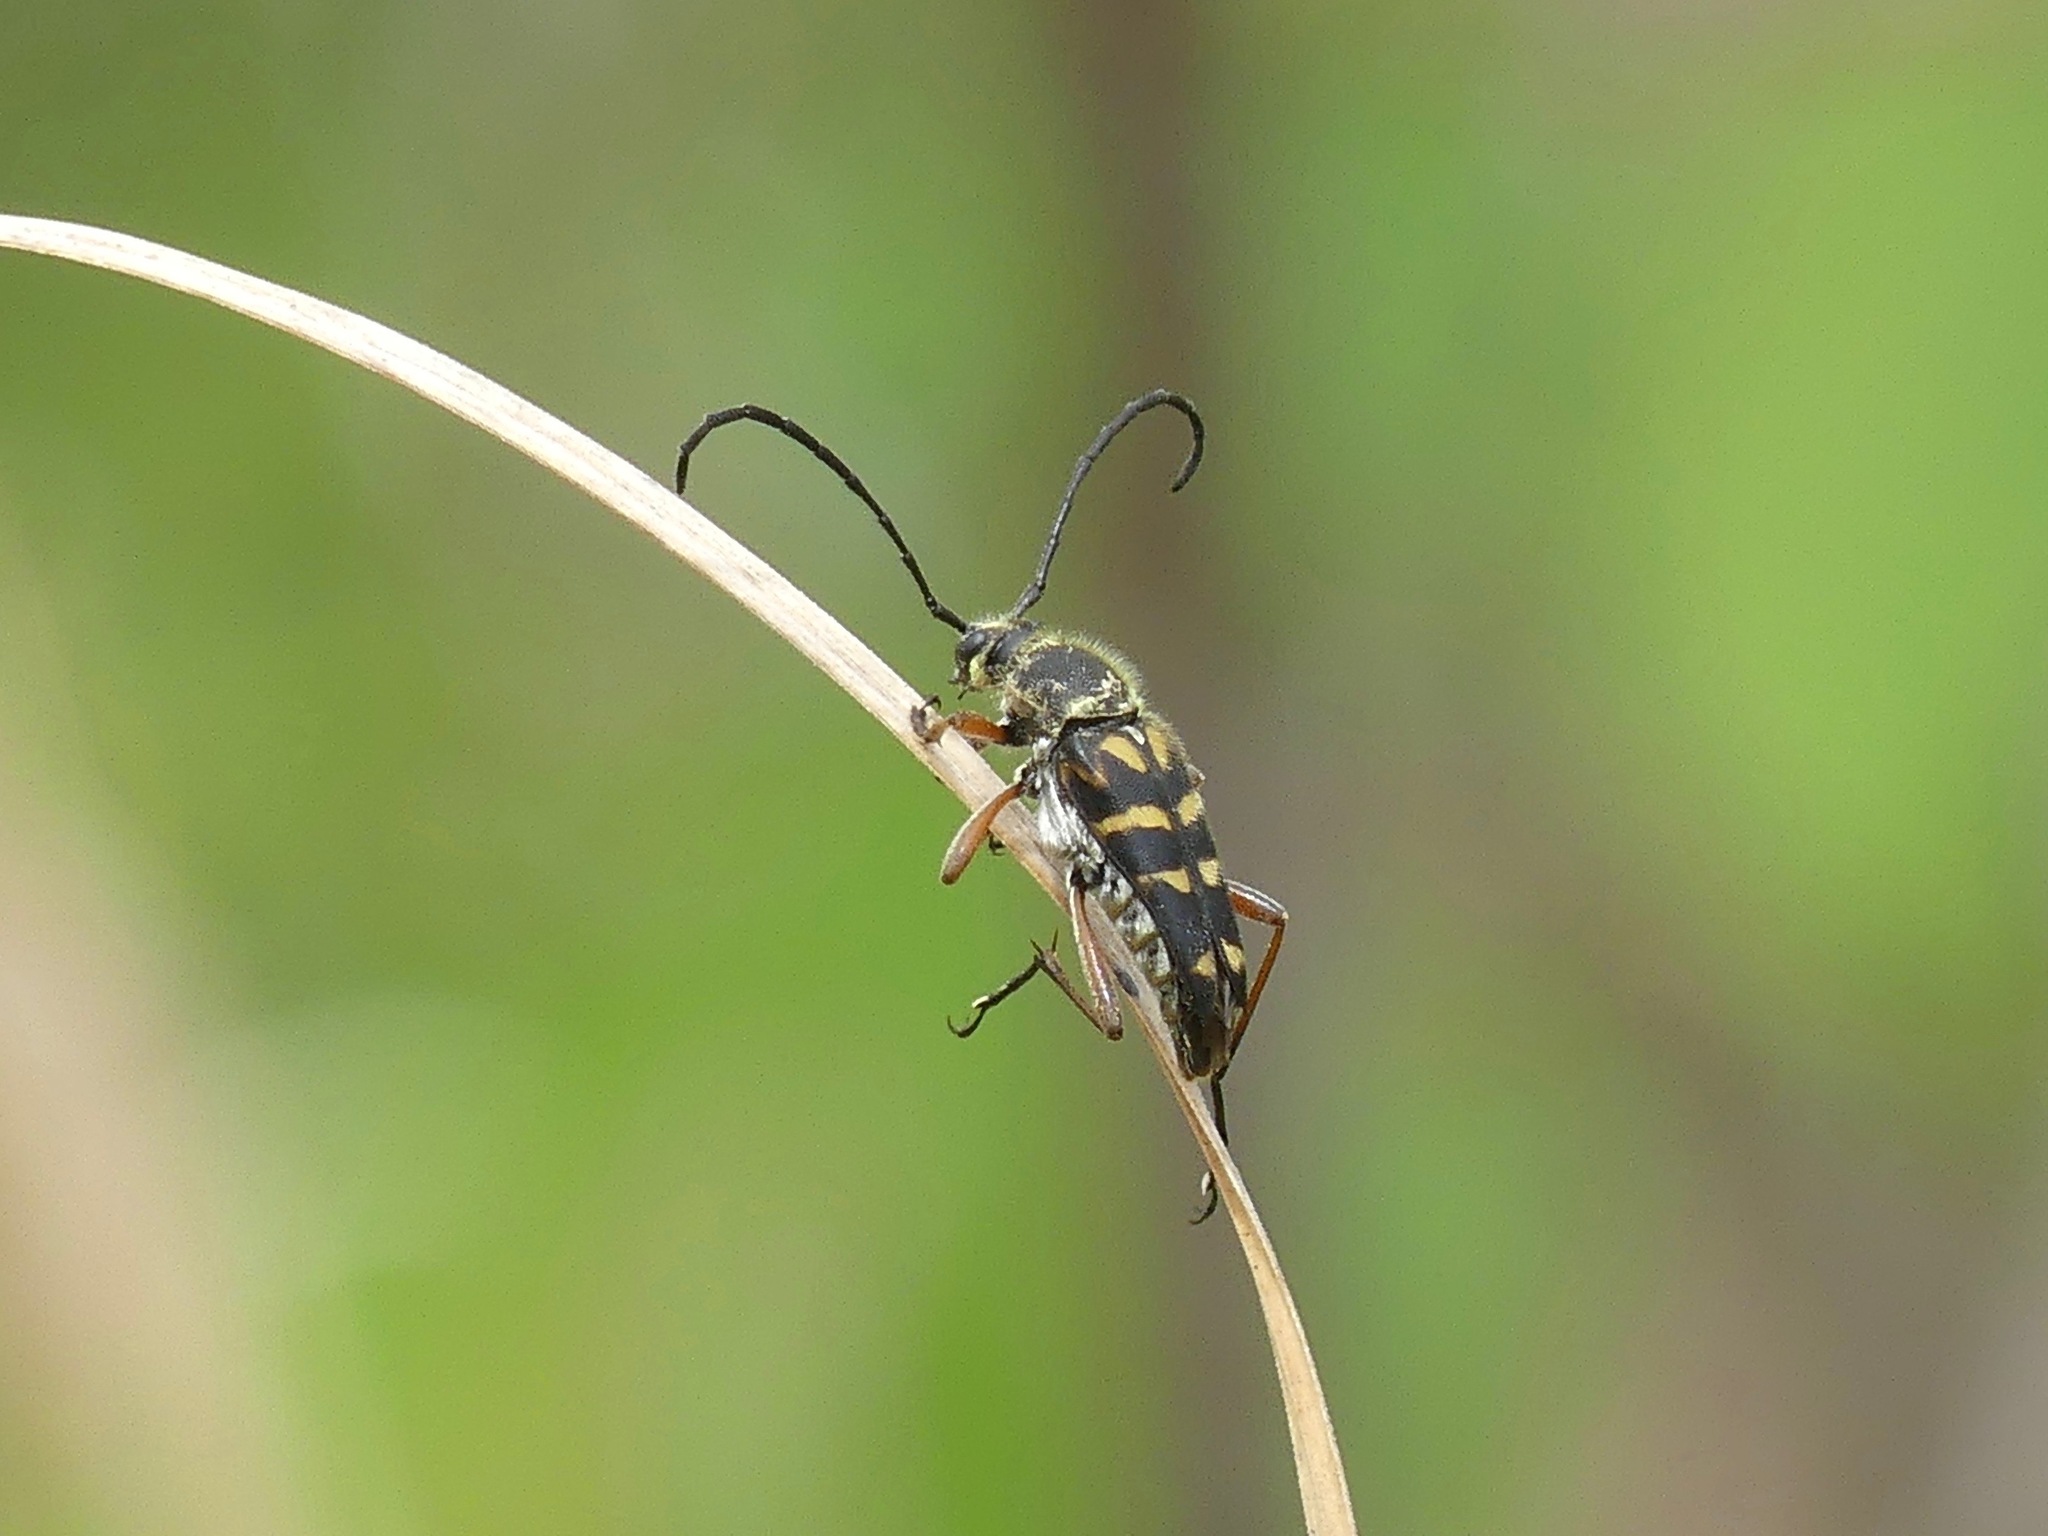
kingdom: Animalia
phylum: Arthropoda
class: Insecta
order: Coleoptera
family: Cerambycidae
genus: Typocerus
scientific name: Typocerus zebra
